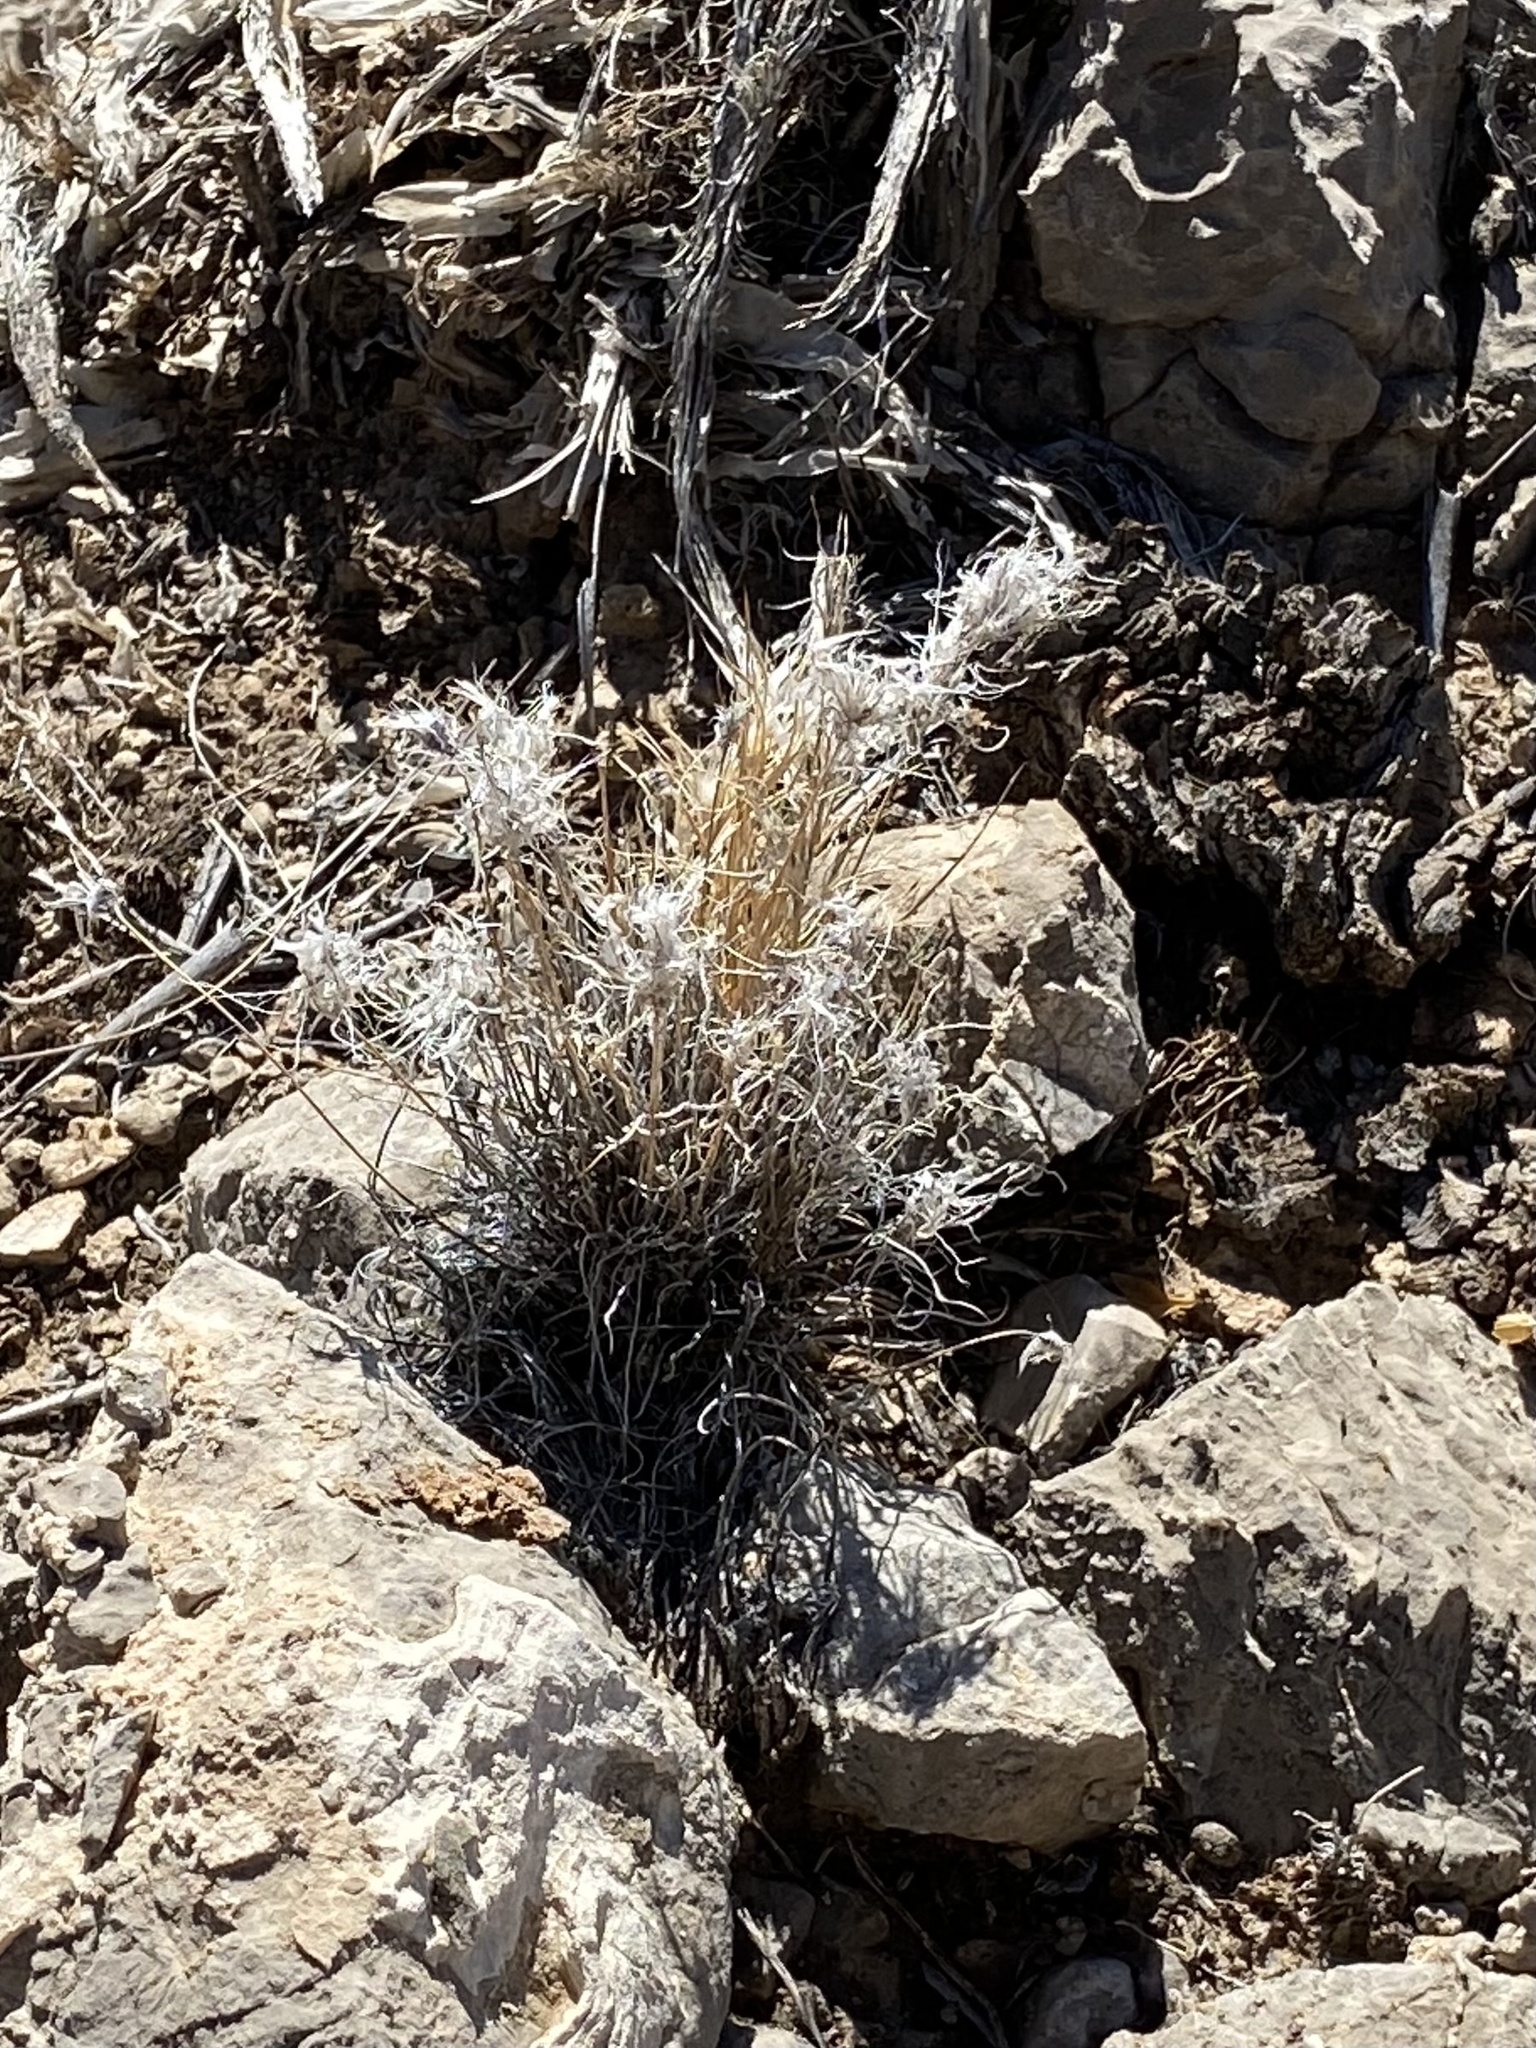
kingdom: Plantae
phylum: Tracheophyta
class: Liliopsida
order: Poales
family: Poaceae
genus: Dasyochloa
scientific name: Dasyochloa pulchella
